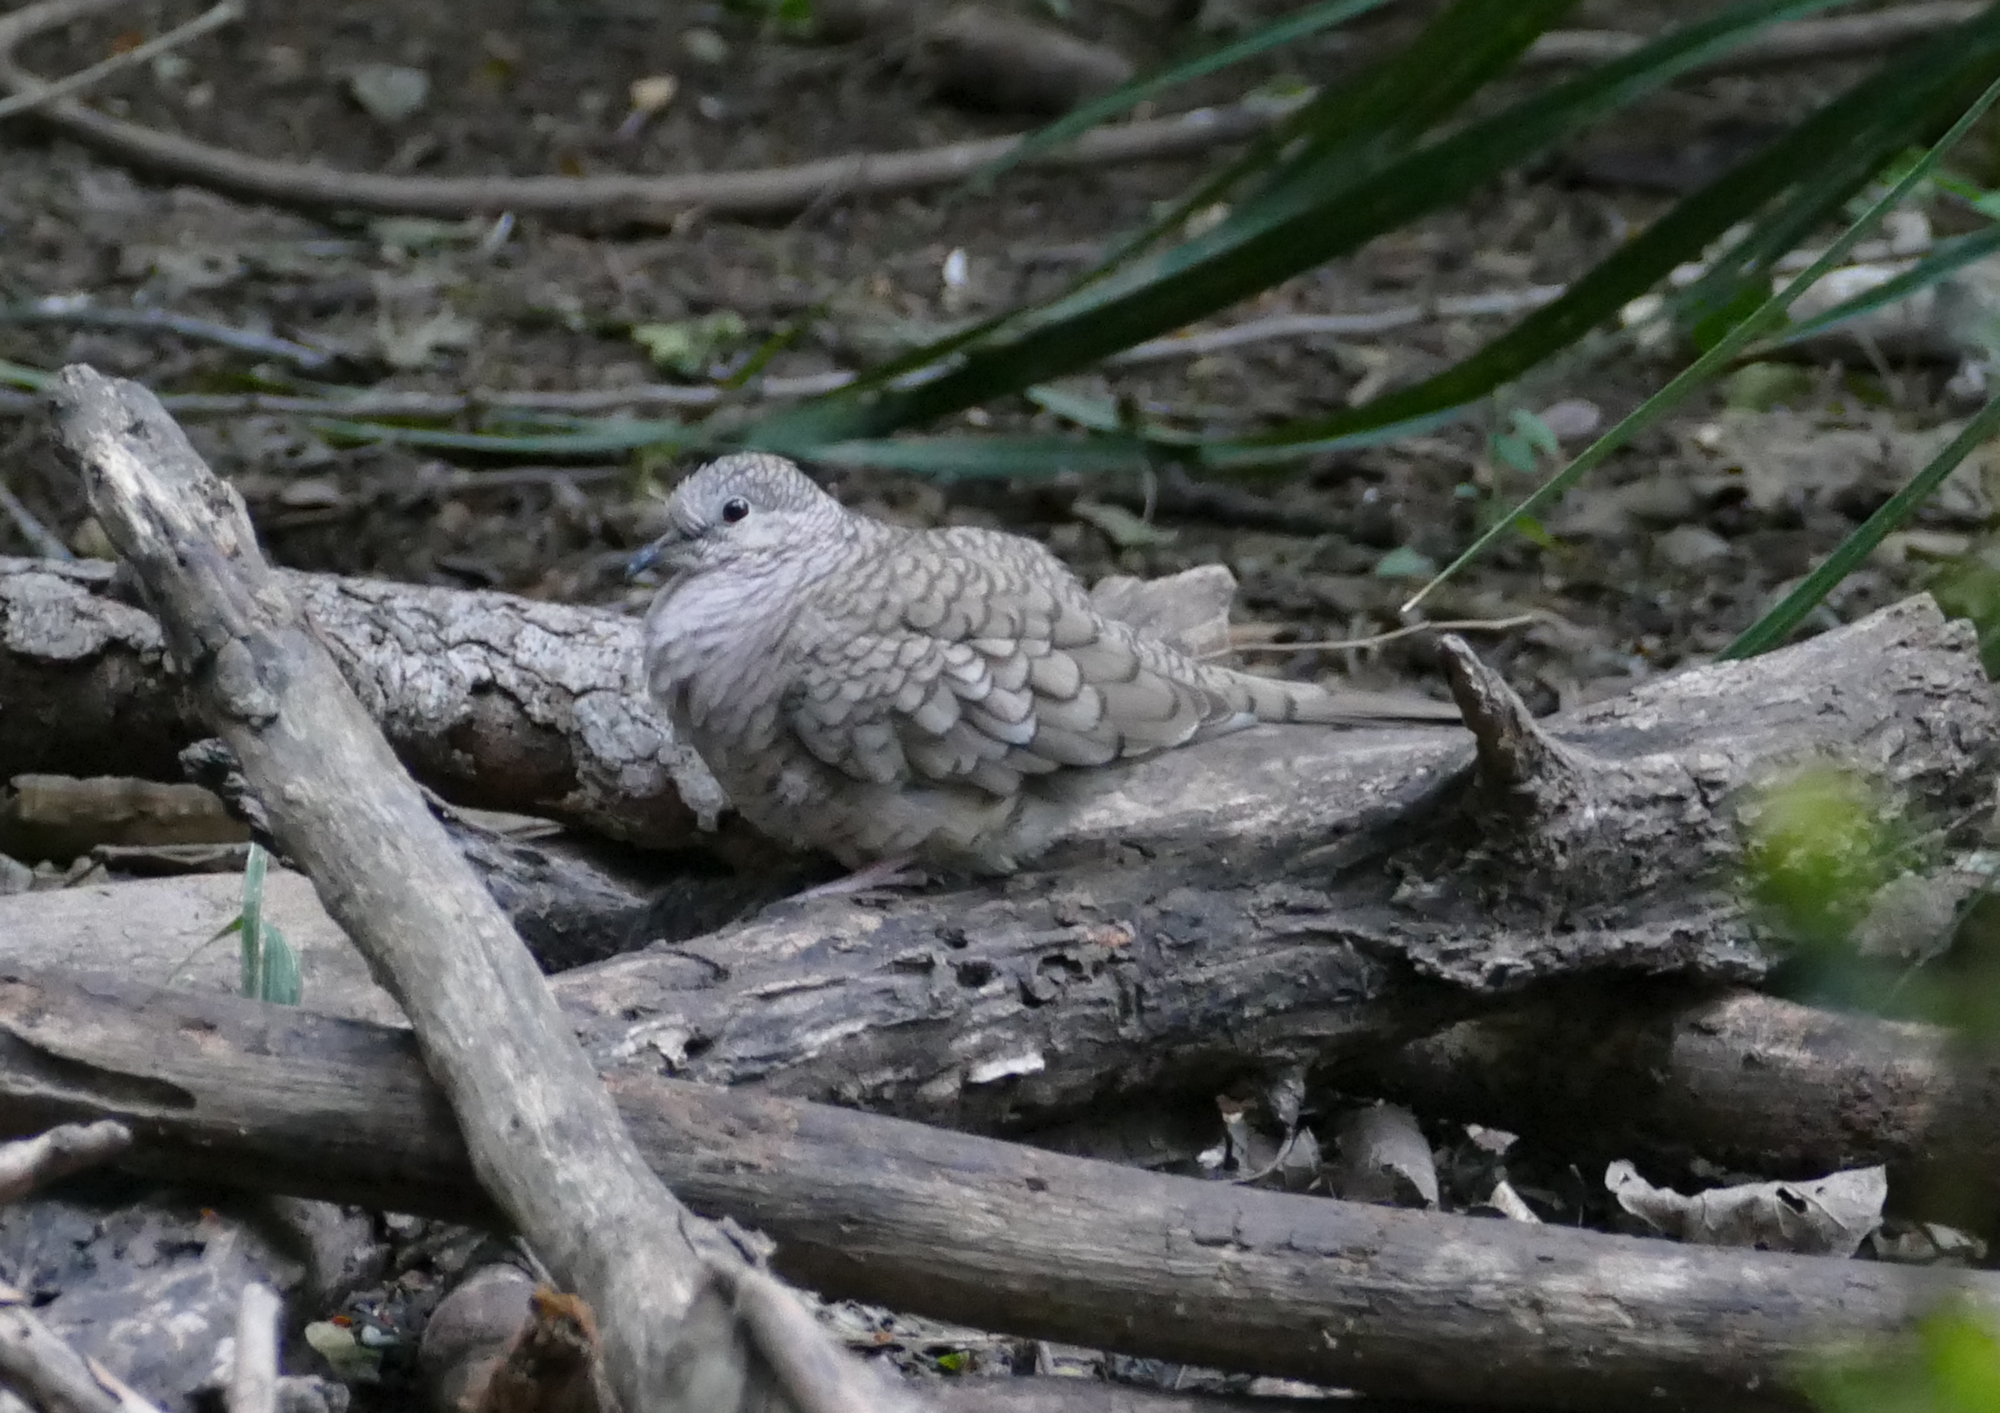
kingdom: Animalia
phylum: Chordata
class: Aves
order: Columbiformes
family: Columbidae
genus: Columbina
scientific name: Columbina inca
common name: Inca dove
